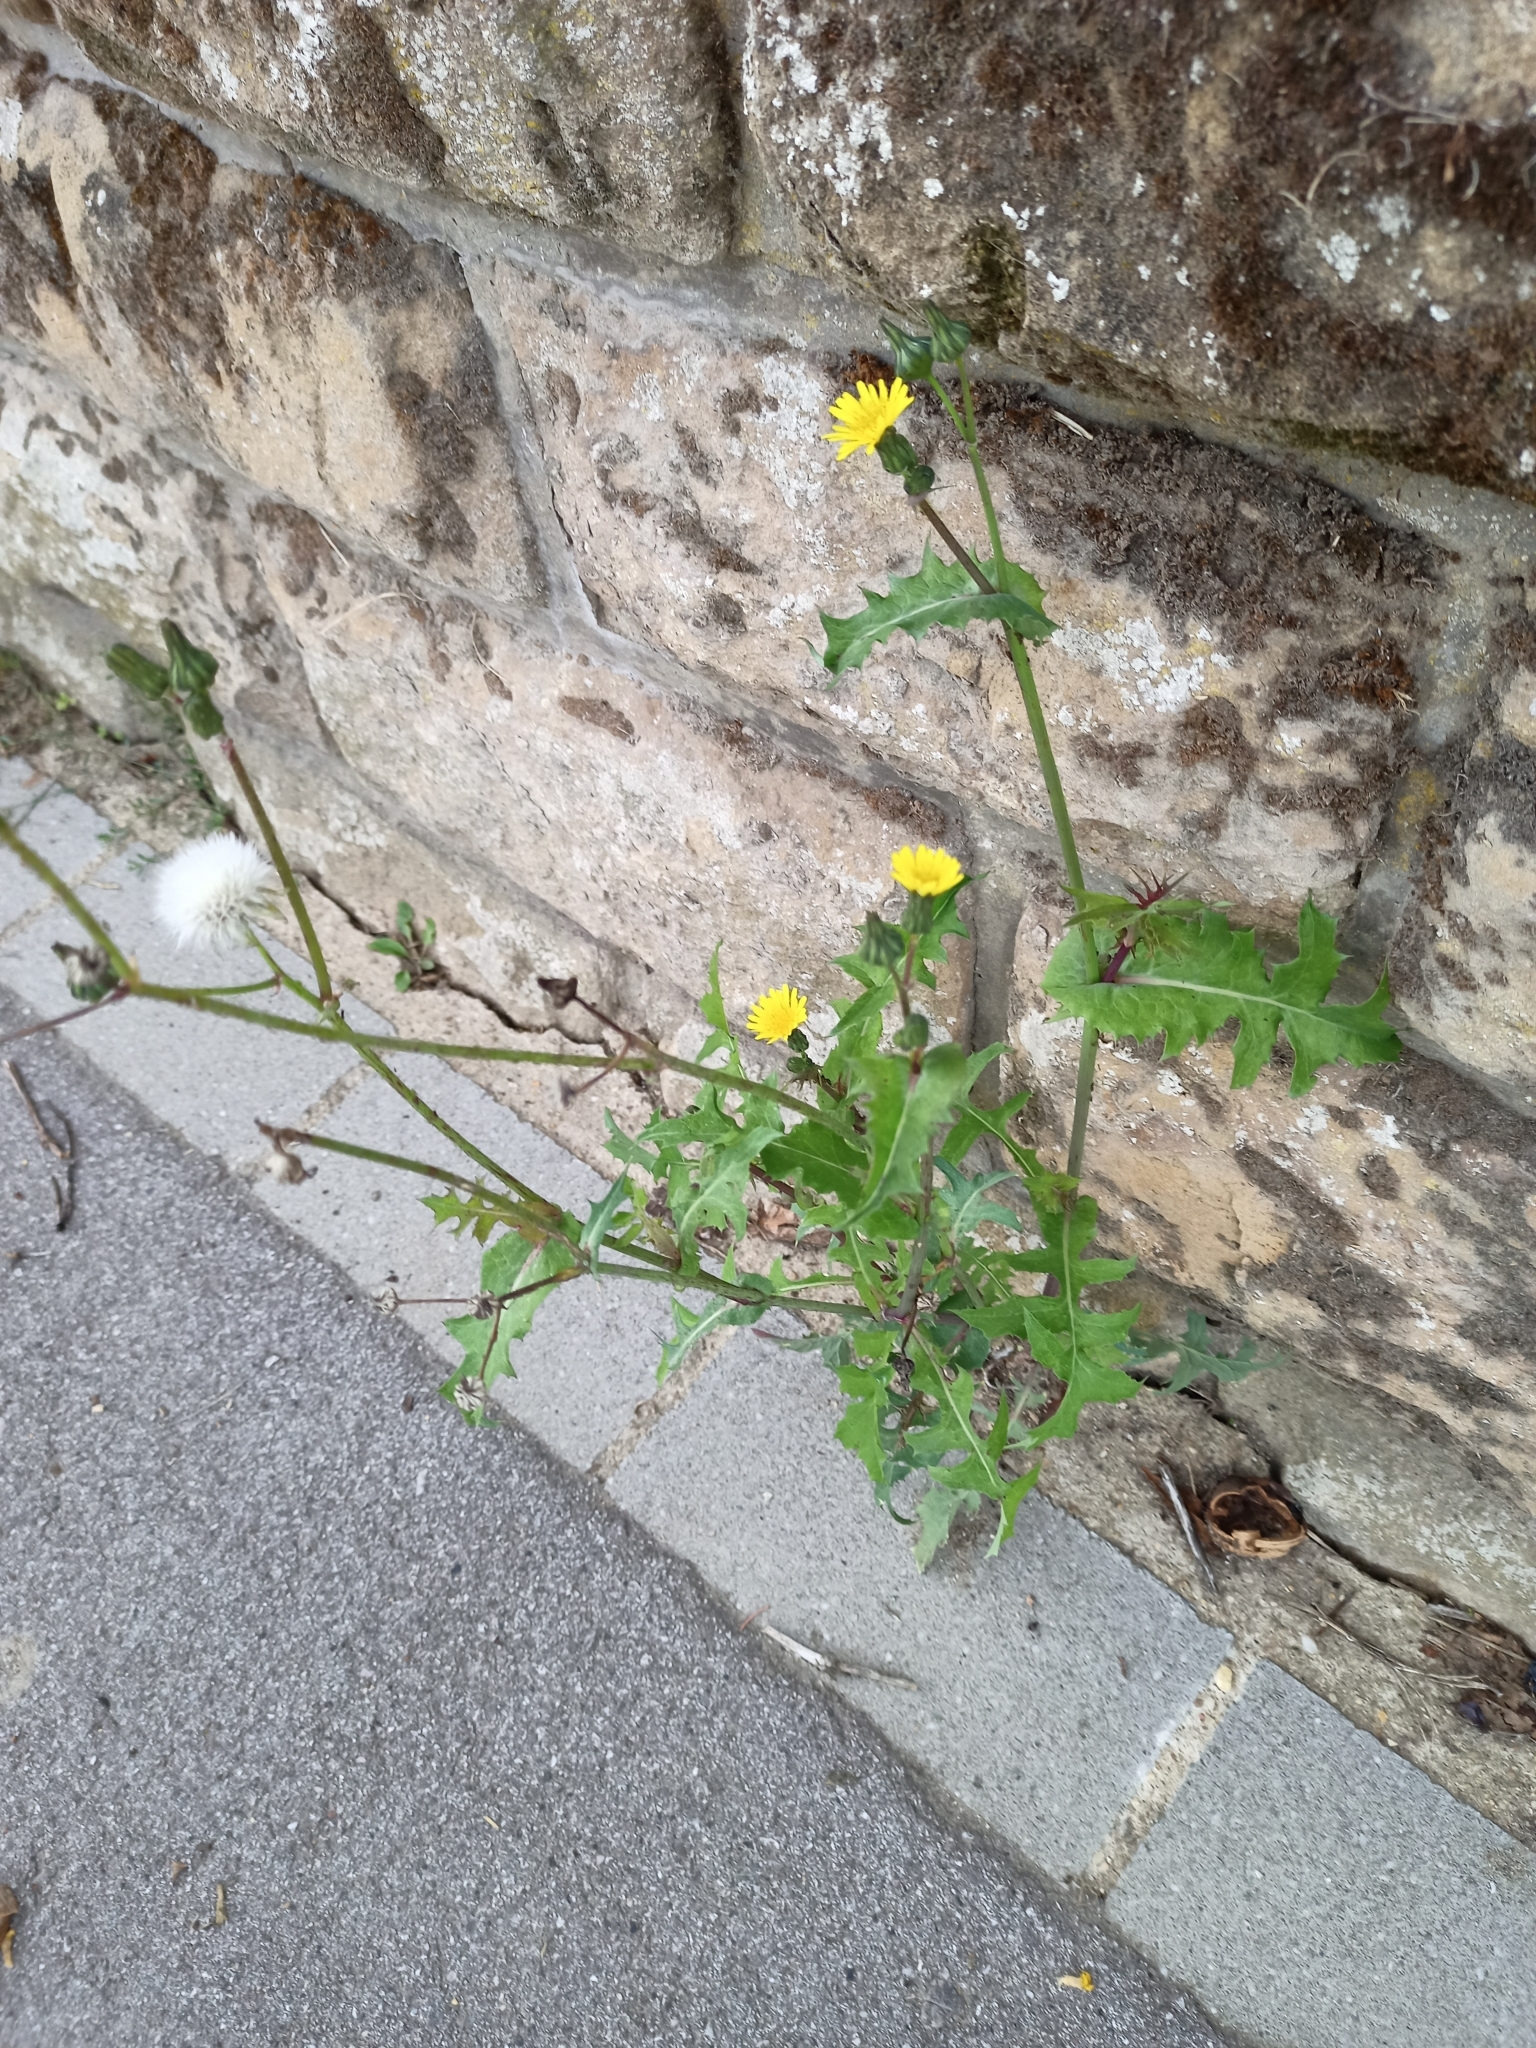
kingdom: Plantae
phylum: Tracheophyta
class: Magnoliopsida
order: Asterales
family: Asteraceae
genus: Sonchus
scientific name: Sonchus oleraceus
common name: Common sowthistle
